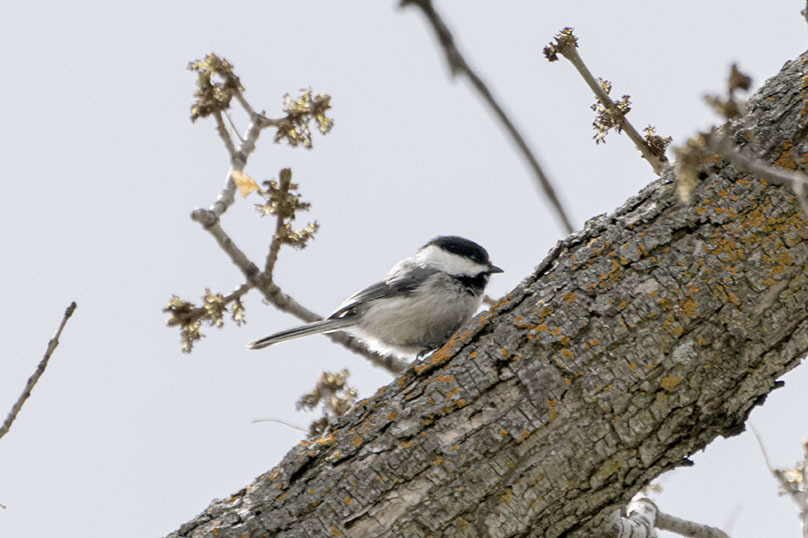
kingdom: Animalia
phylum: Chordata
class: Aves
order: Passeriformes
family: Paridae
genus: Poecile
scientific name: Poecile atricapillus
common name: Black-capped chickadee
